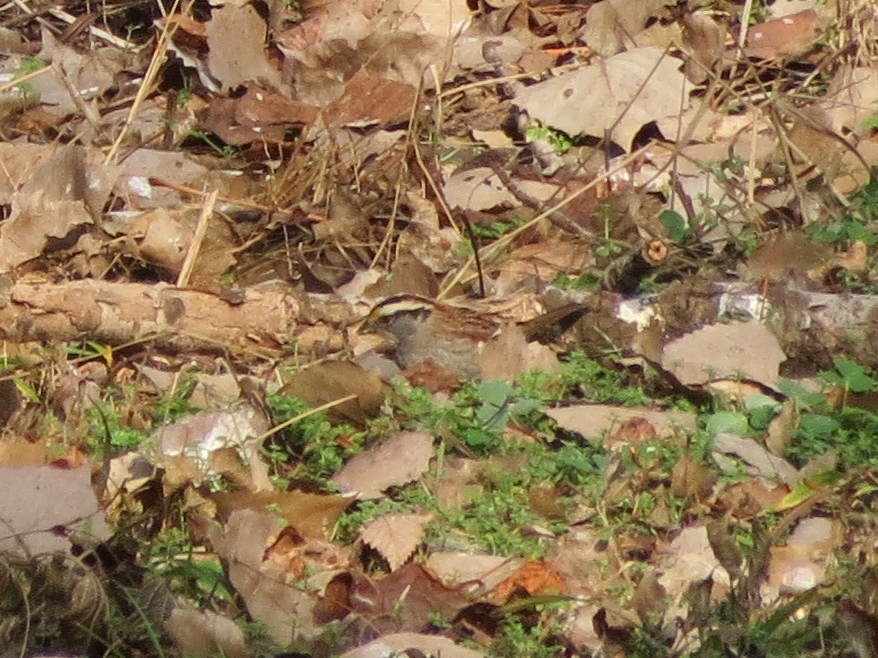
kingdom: Animalia
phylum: Chordata
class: Aves
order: Passeriformes
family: Passerellidae
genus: Zonotrichia
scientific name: Zonotrichia albicollis
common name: White-throated sparrow
